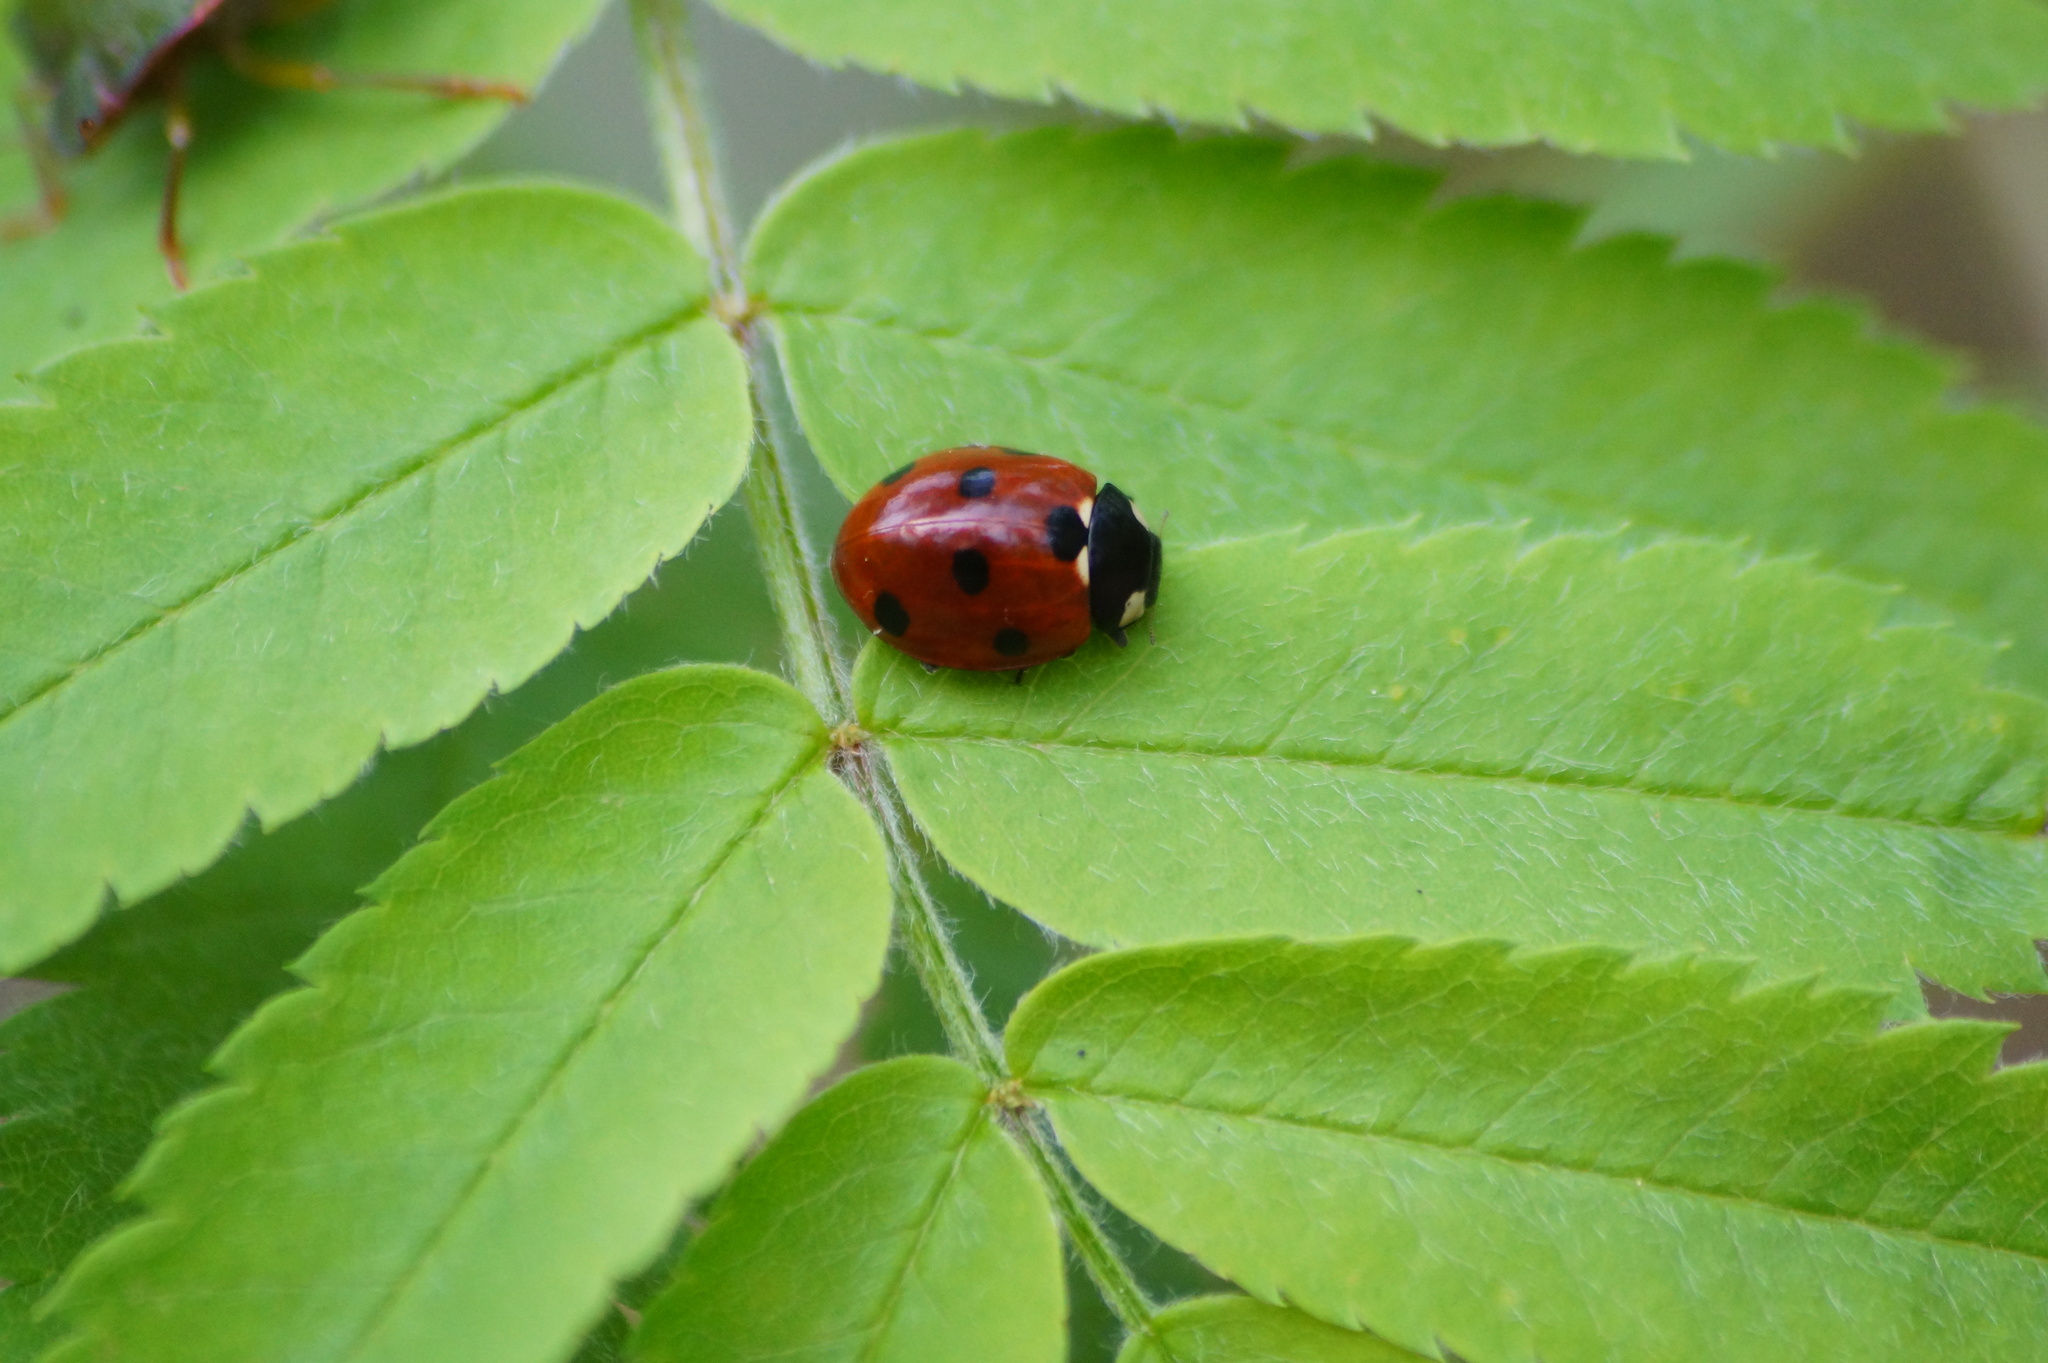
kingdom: Animalia
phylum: Arthropoda
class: Insecta
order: Coleoptera
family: Coccinellidae
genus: Coccinella
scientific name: Coccinella septempunctata
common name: Sevenspotted lady beetle
